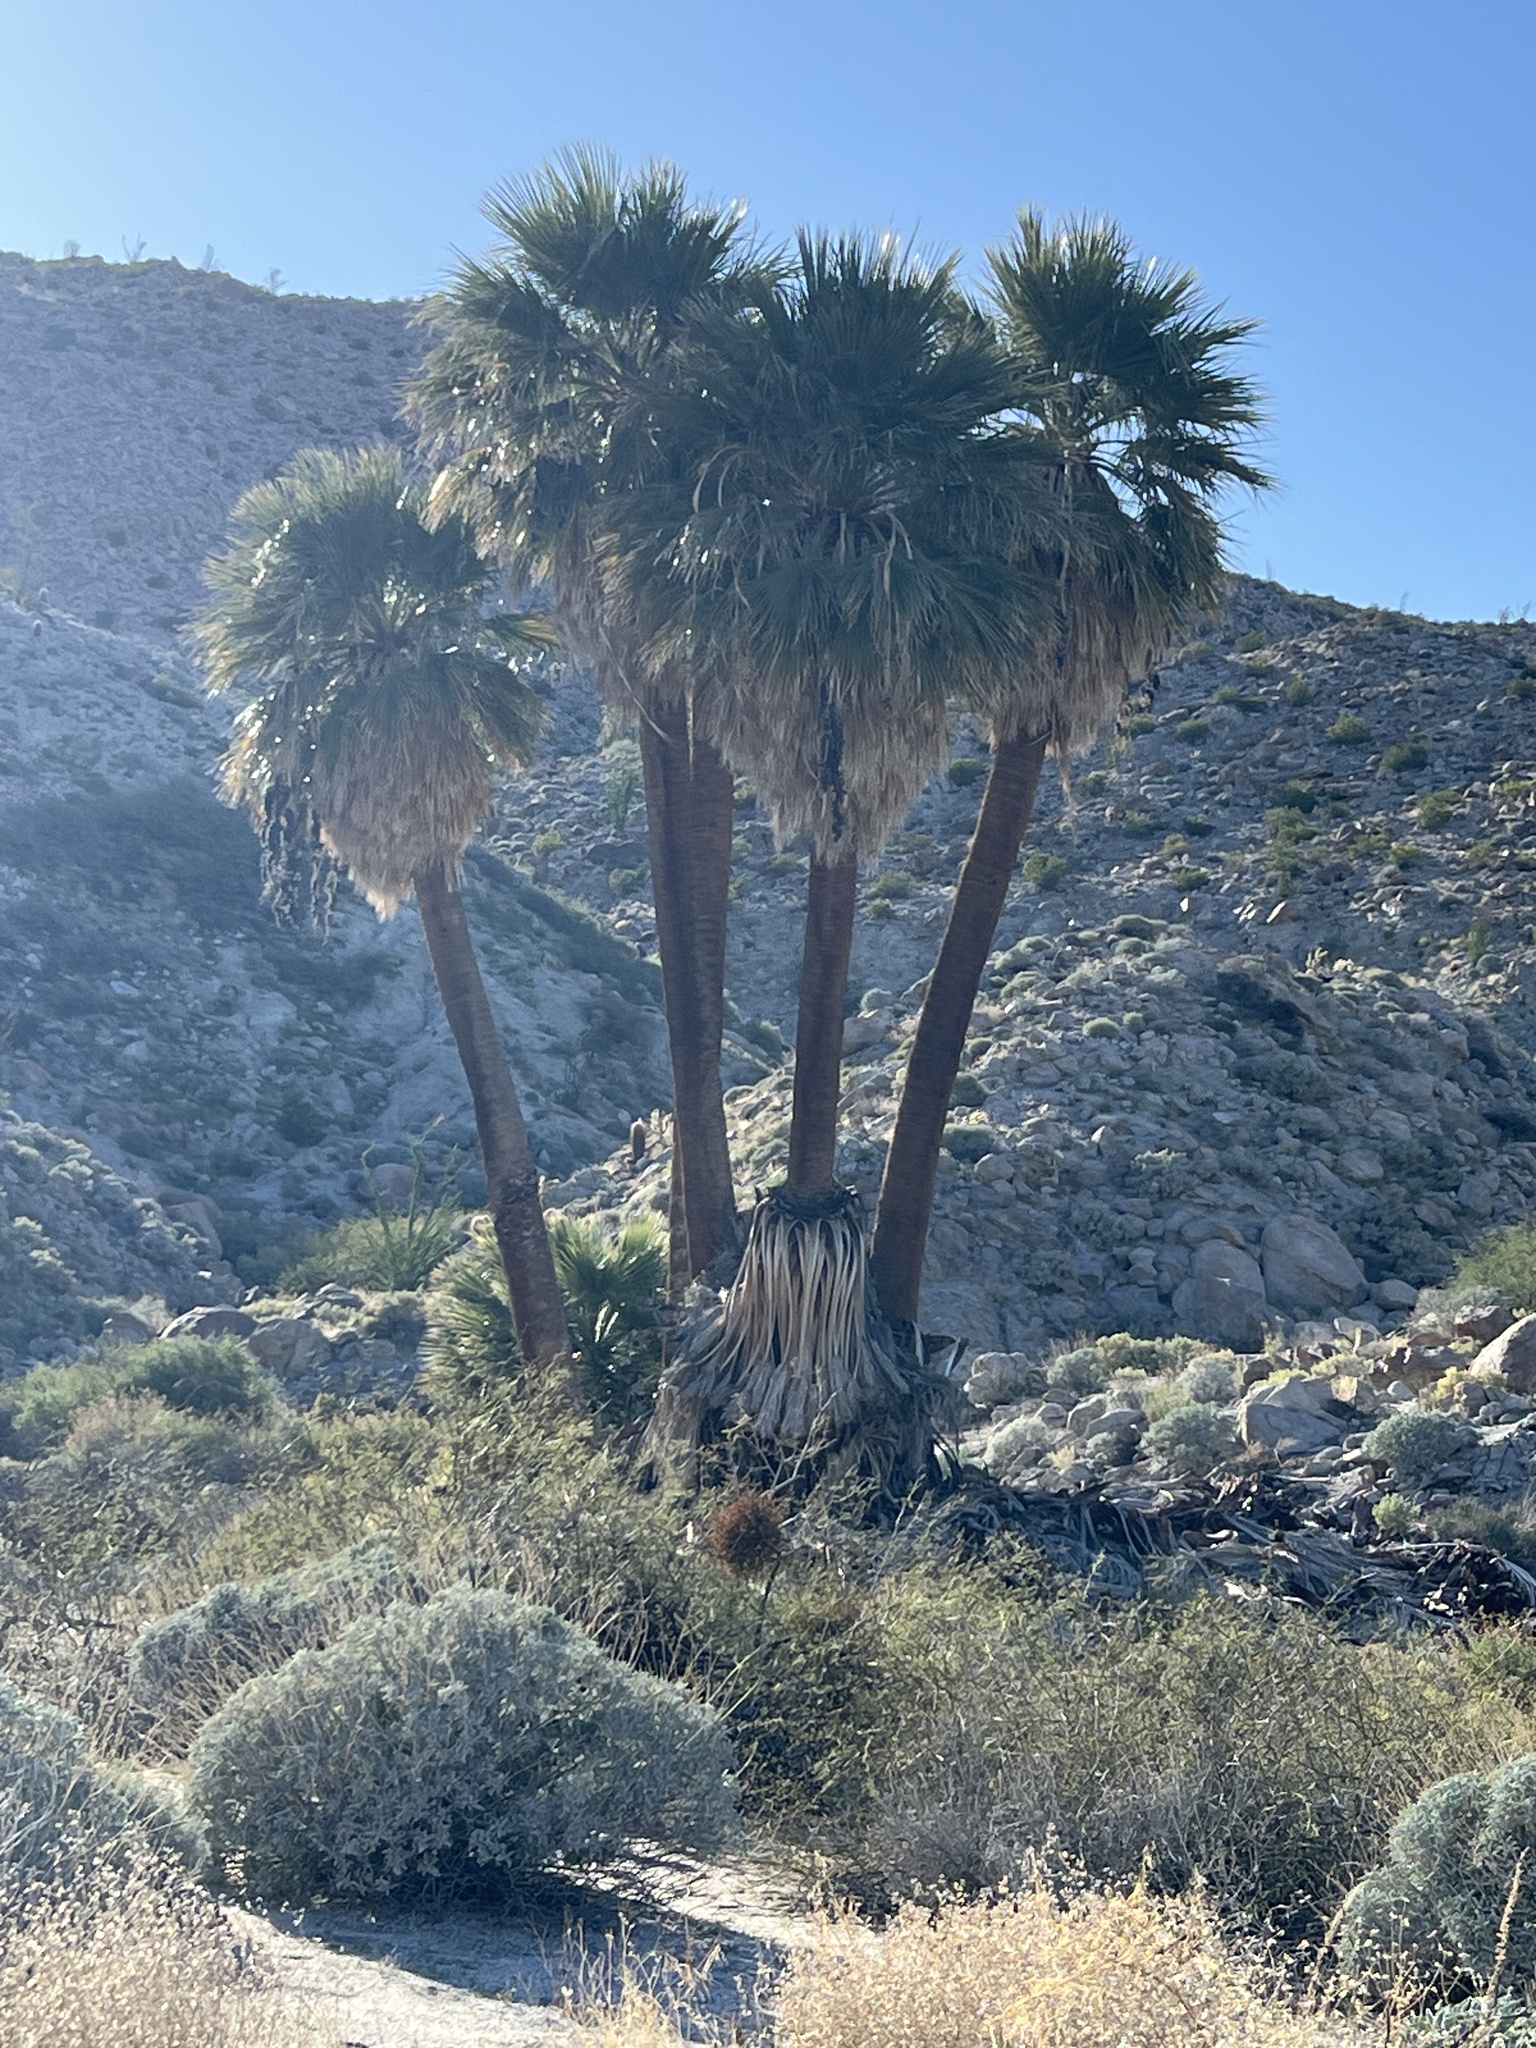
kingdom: Plantae
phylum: Tracheophyta
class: Liliopsida
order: Arecales
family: Arecaceae
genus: Washingtonia
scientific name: Washingtonia filifera
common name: California fan palm
